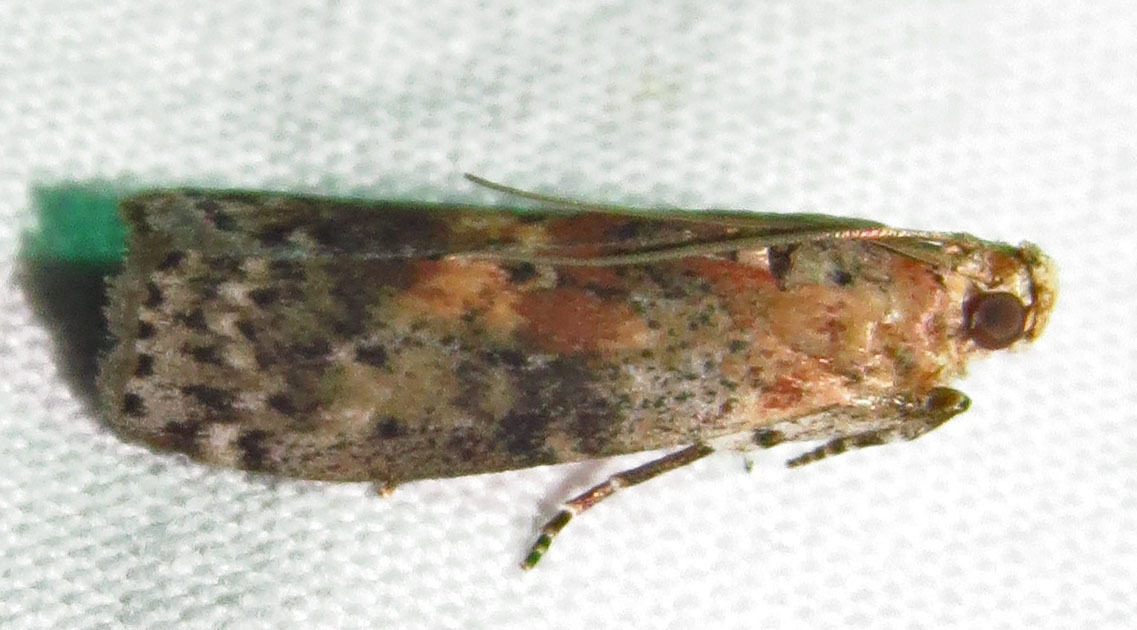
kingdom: Animalia
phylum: Arthropoda
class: Insecta
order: Lepidoptera
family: Pyralidae
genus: Sciota
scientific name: Sciota celtidella
